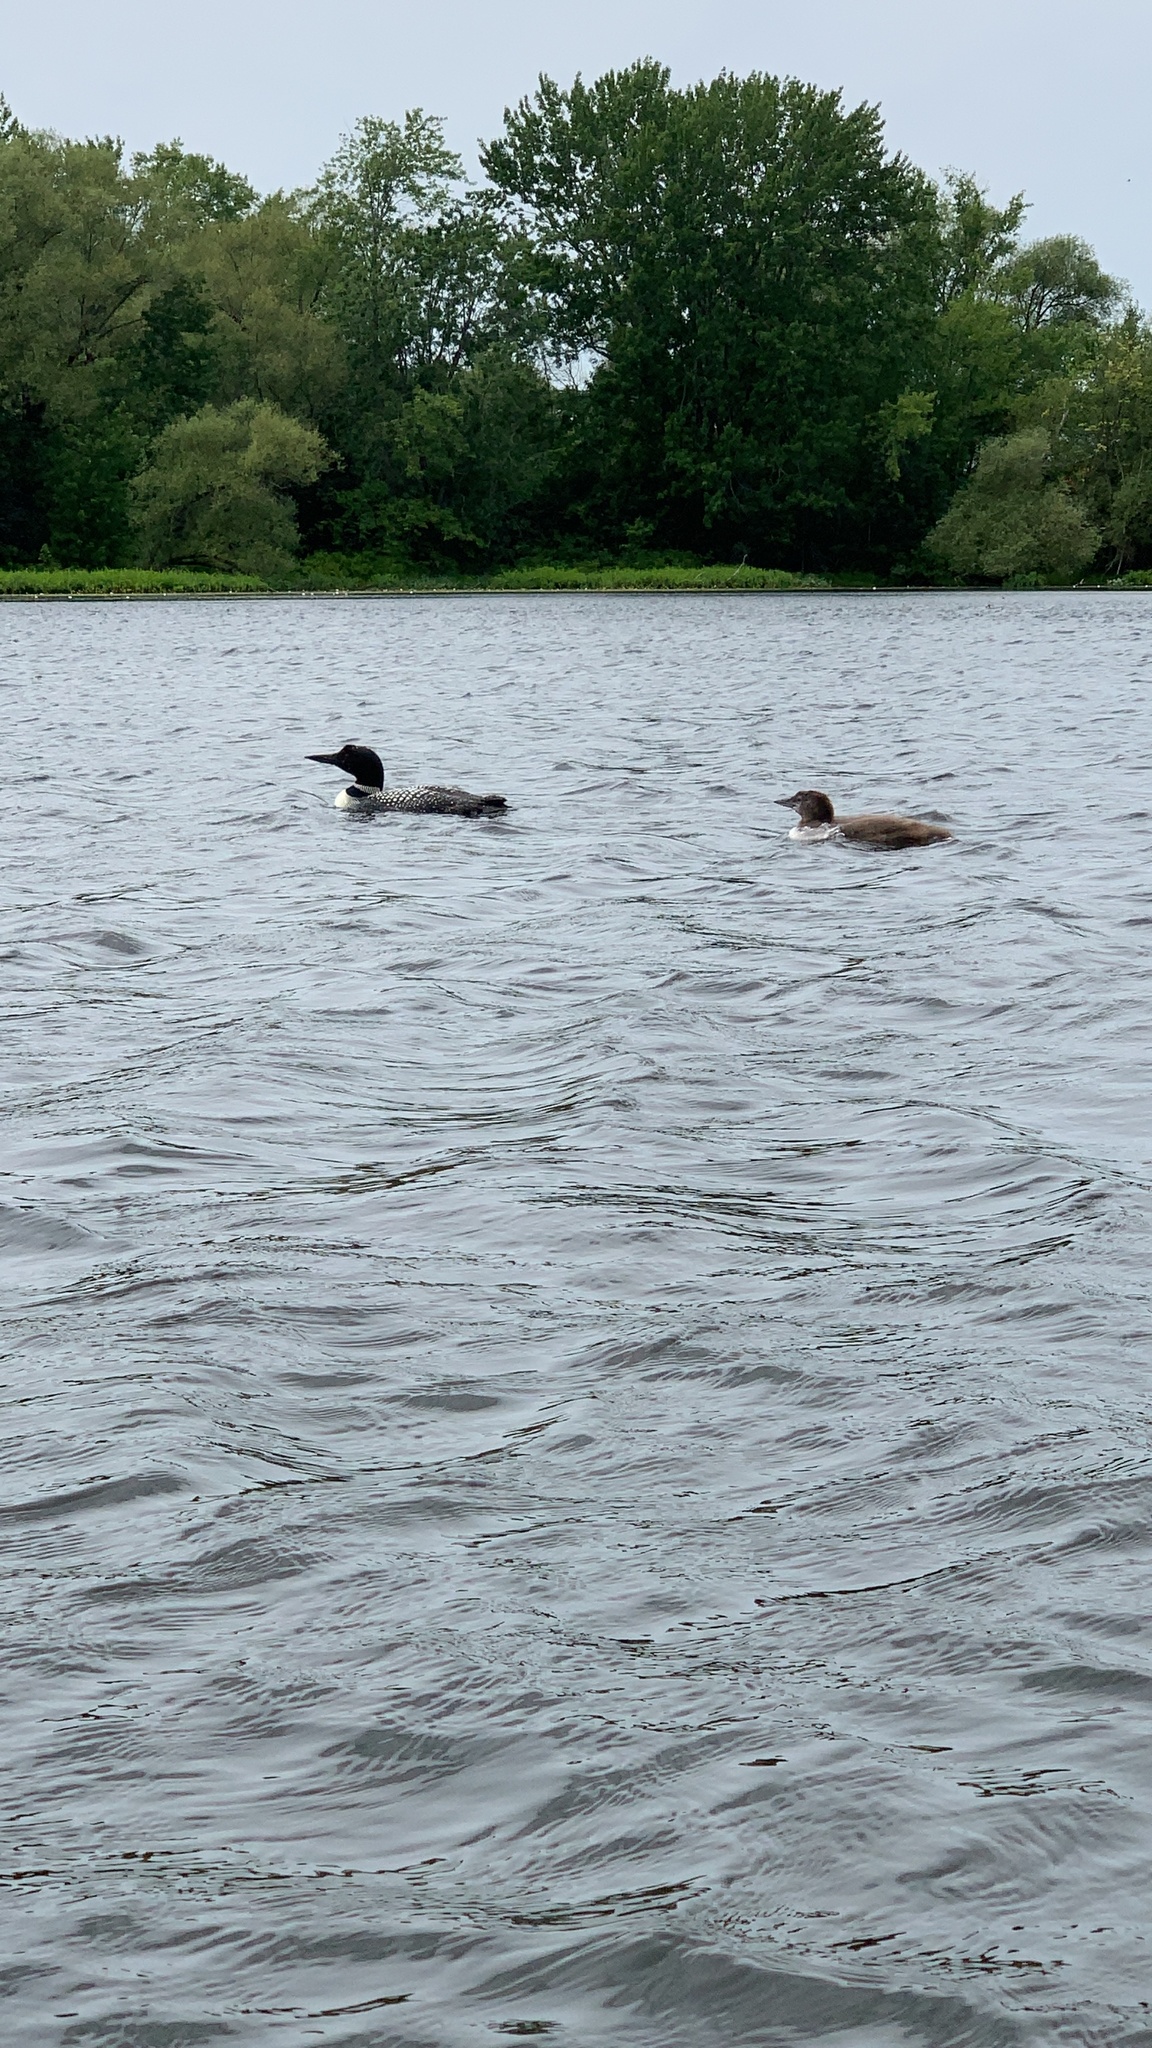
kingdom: Animalia
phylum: Chordata
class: Aves
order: Gaviiformes
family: Gaviidae
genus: Gavia
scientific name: Gavia immer
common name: Common loon
